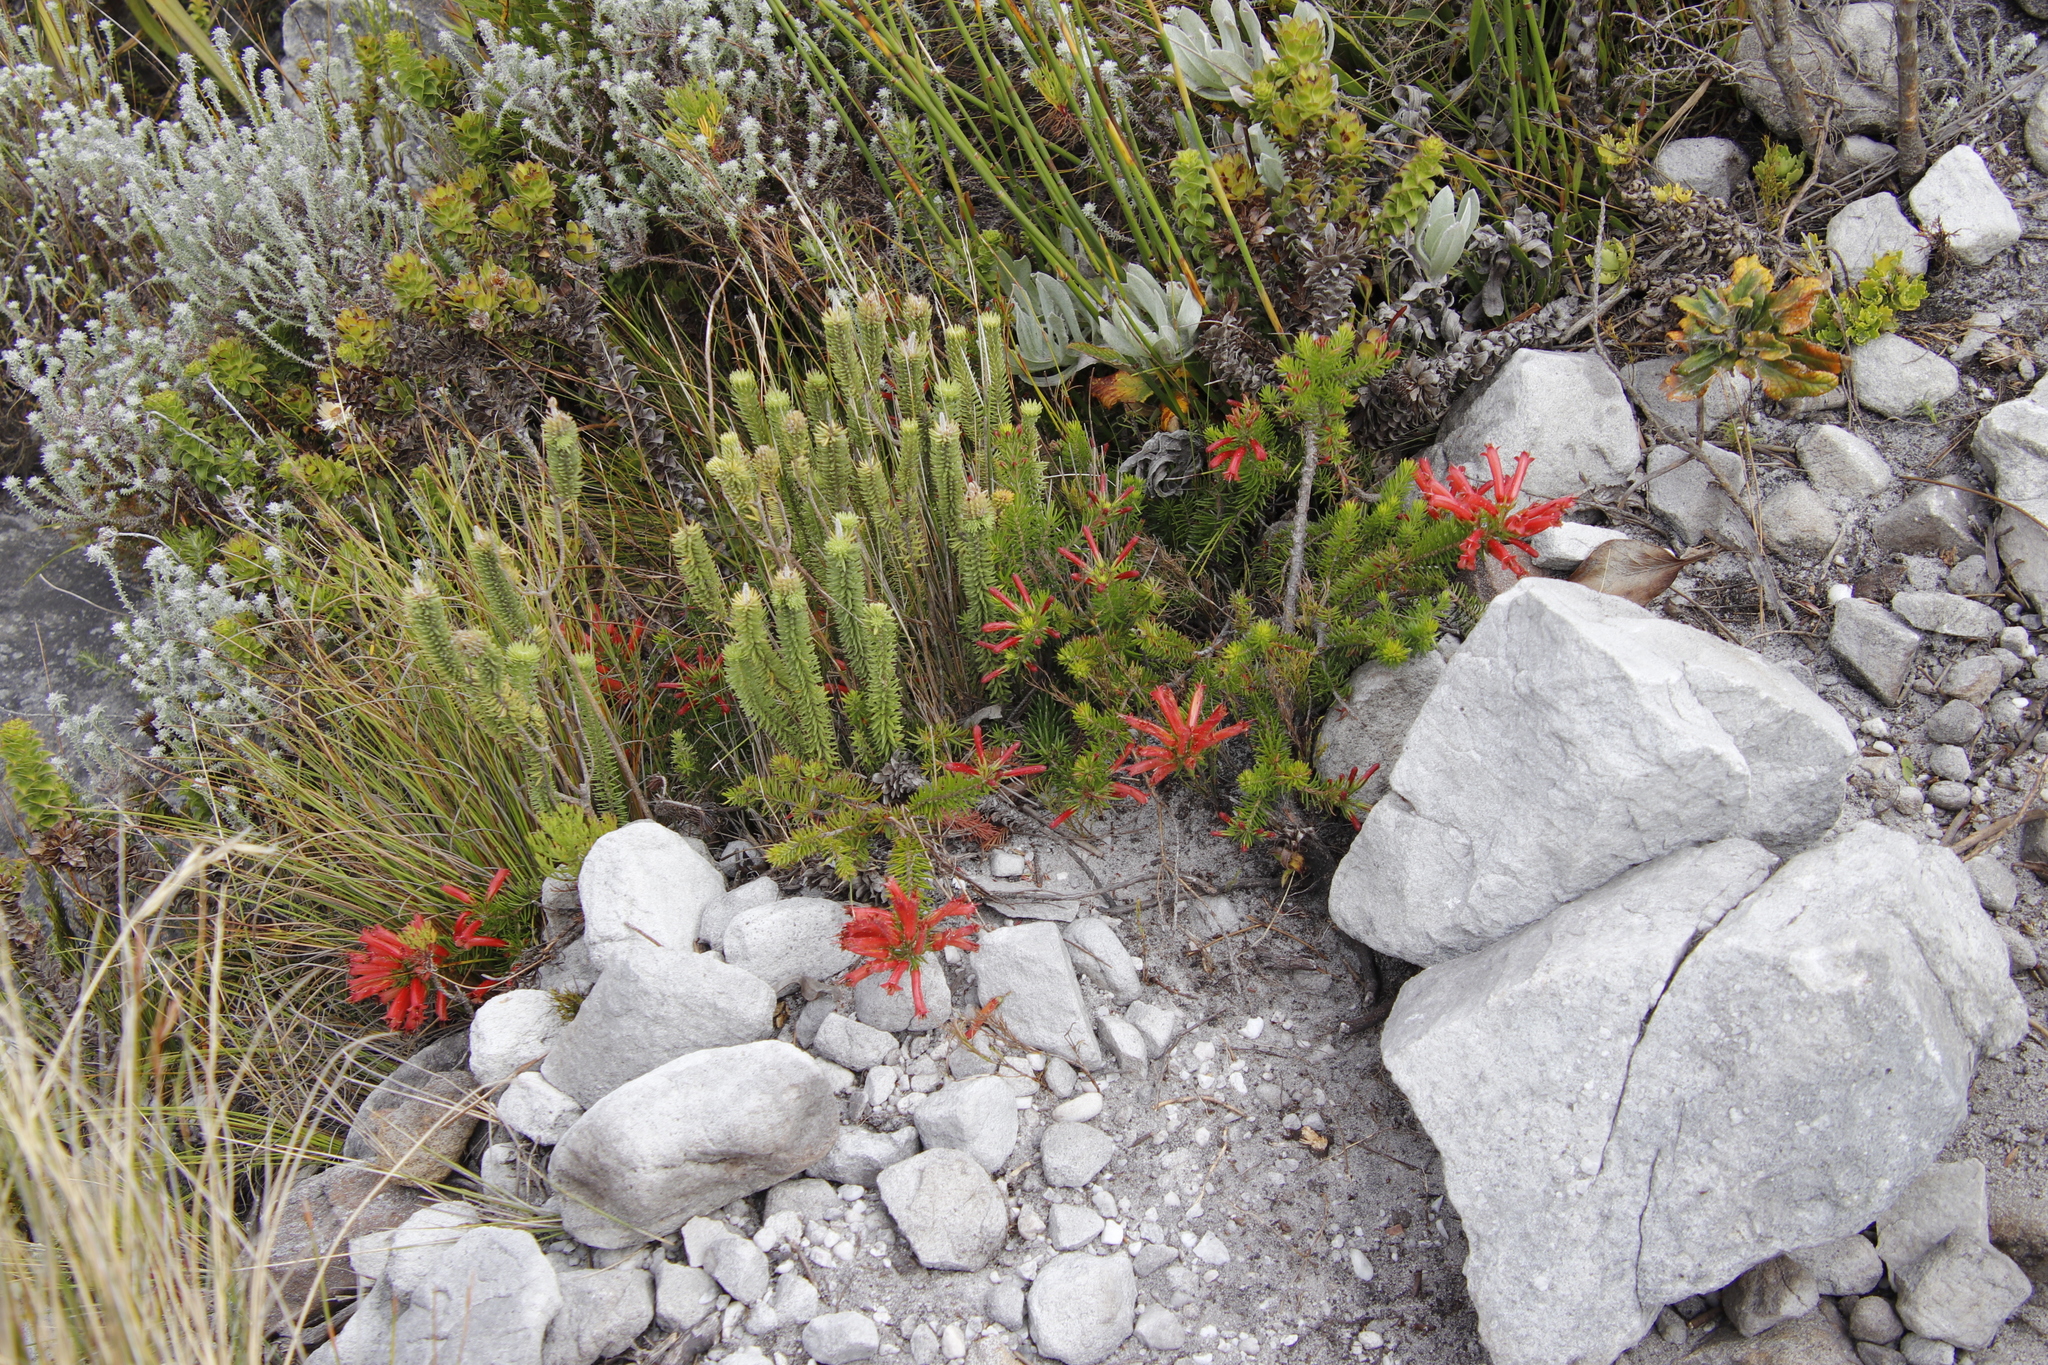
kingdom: Plantae
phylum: Tracheophyta
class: Magnoliopsida
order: Lamiales
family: Stilbaceae
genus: Stilbe
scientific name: Stilbe vestita
